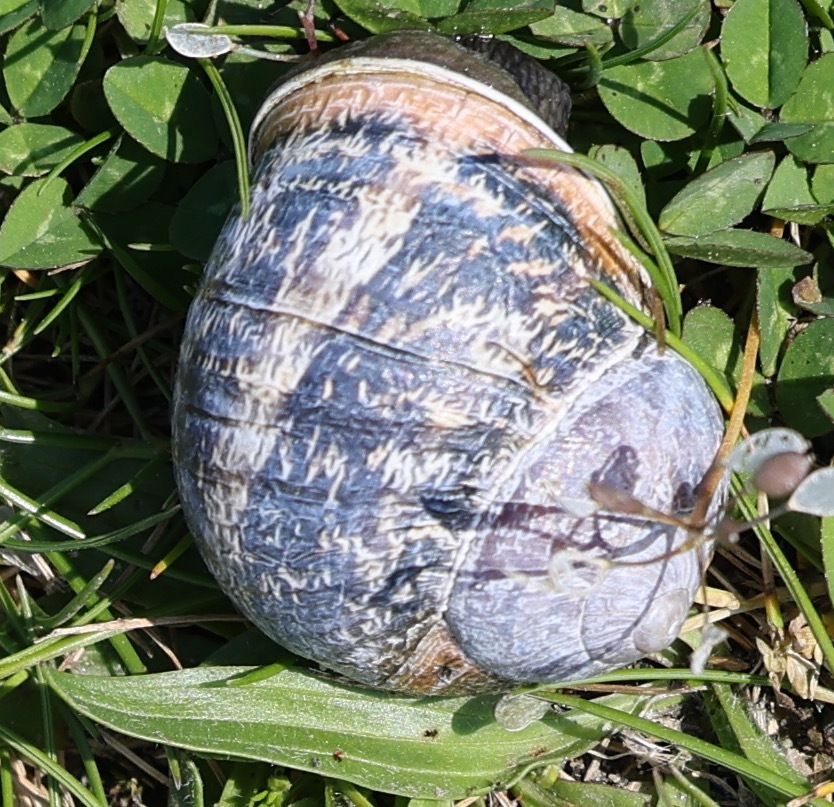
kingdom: Animalia
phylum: Mollusca
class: Gastropoda
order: Stylommatophora
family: Helicidae
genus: Cornu
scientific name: Cornu aspersum
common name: Brown garden snail
